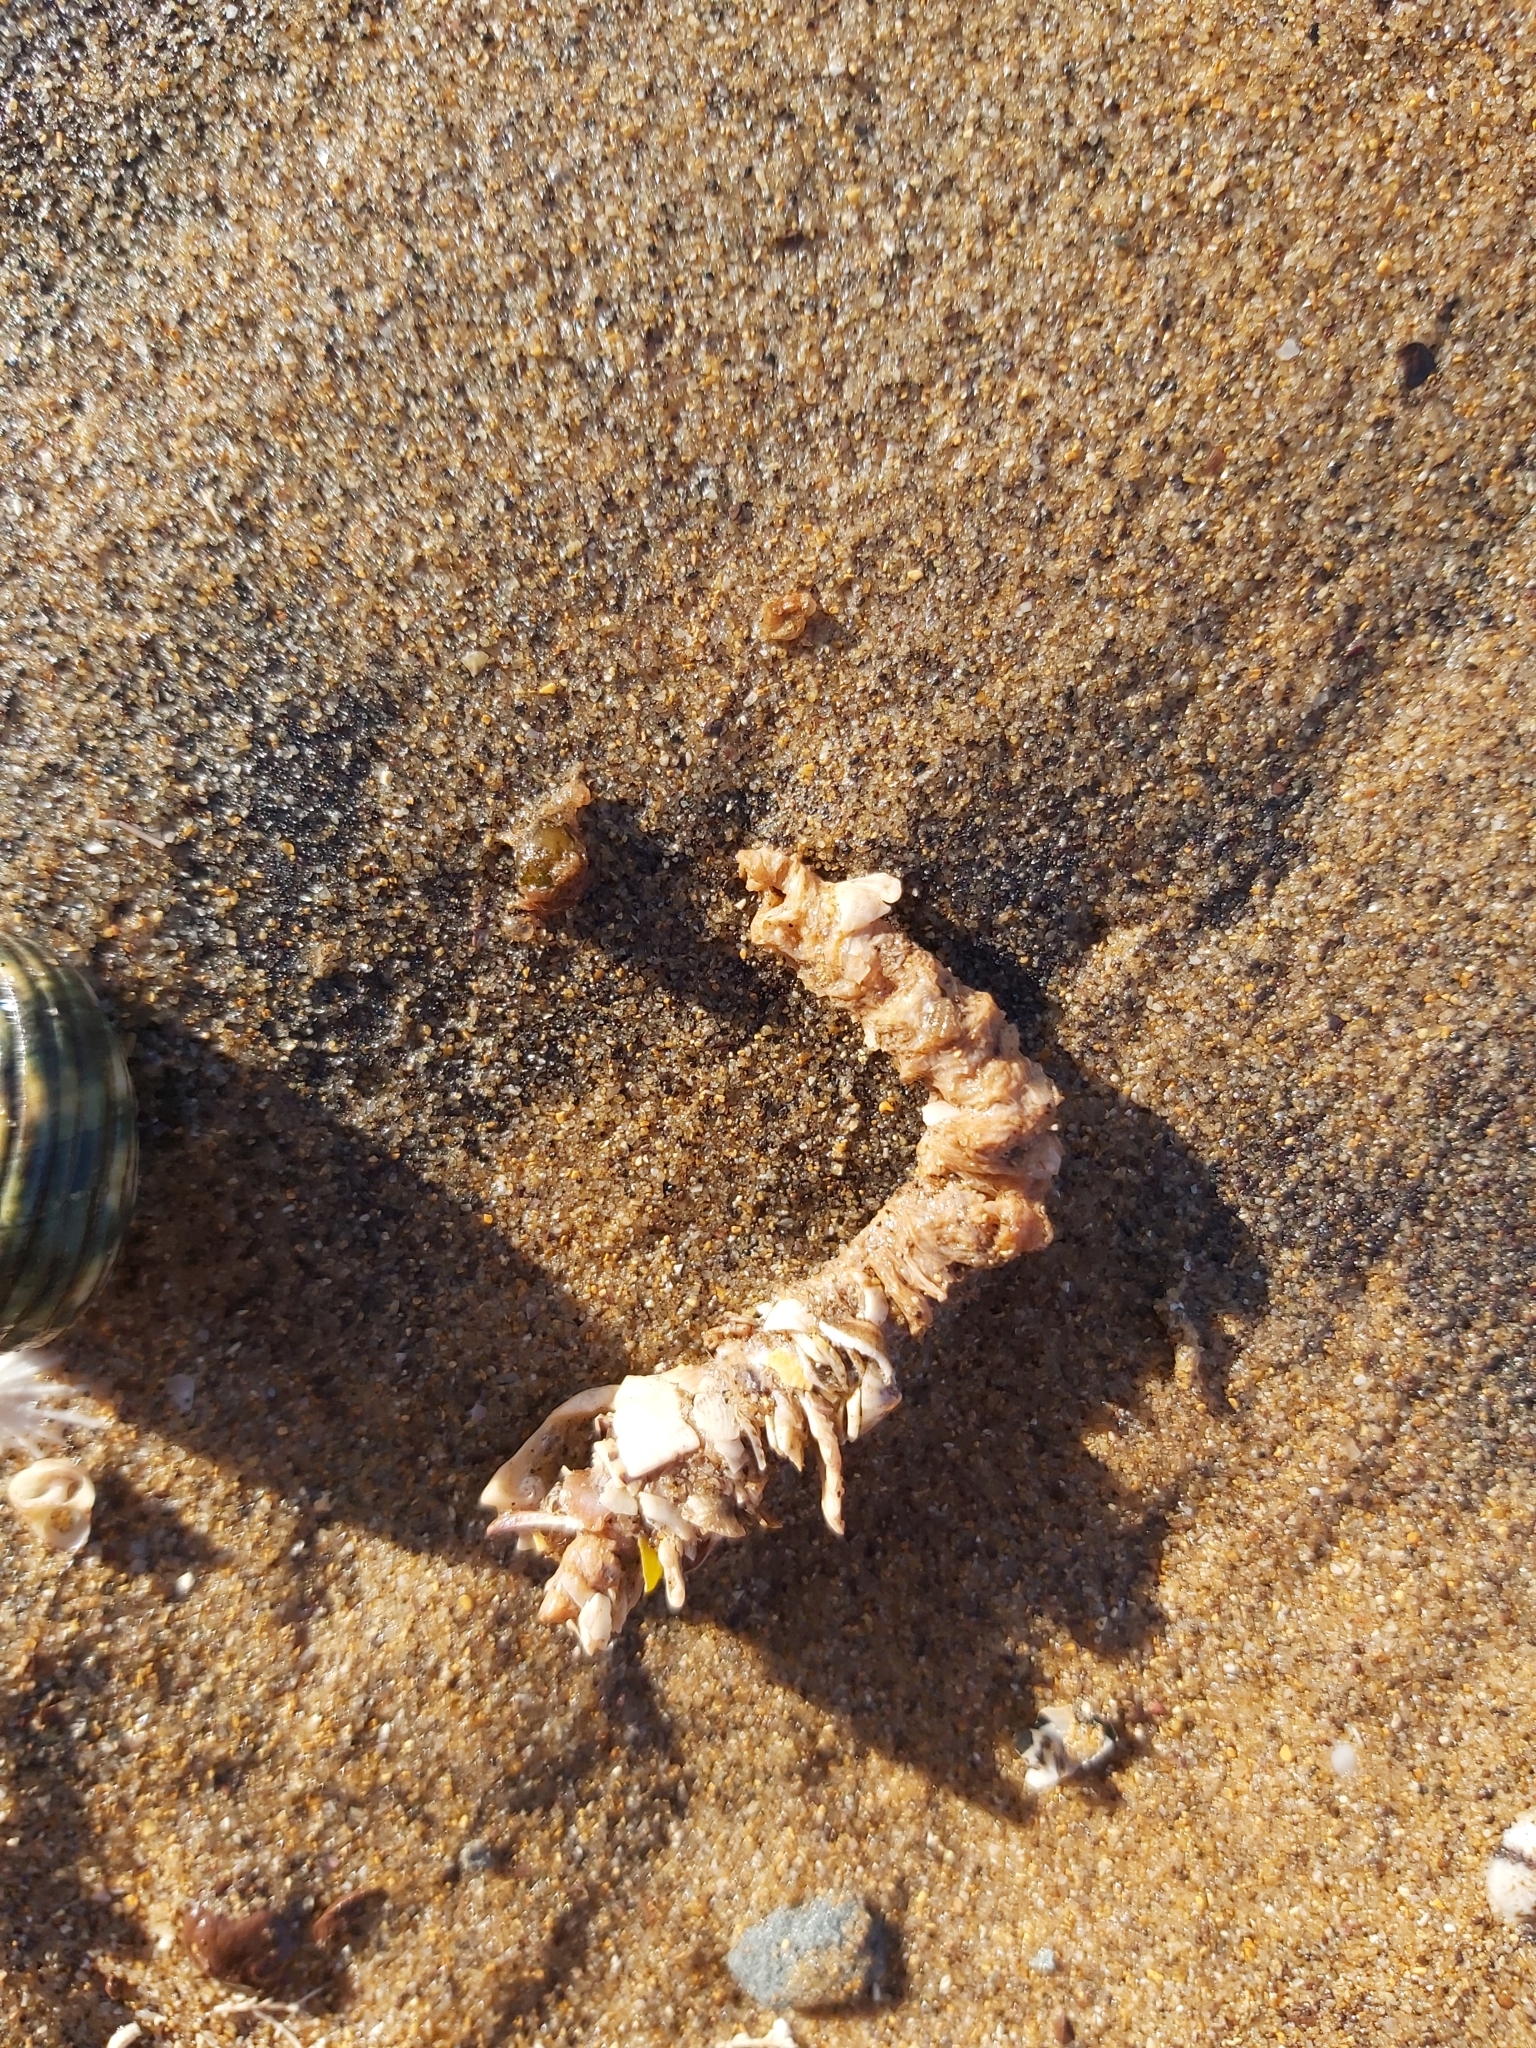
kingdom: Animalia
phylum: Annelida
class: Polychaeta
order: Eunicida
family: Onuphidae
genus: Diopatra
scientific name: Diopatra dentata
